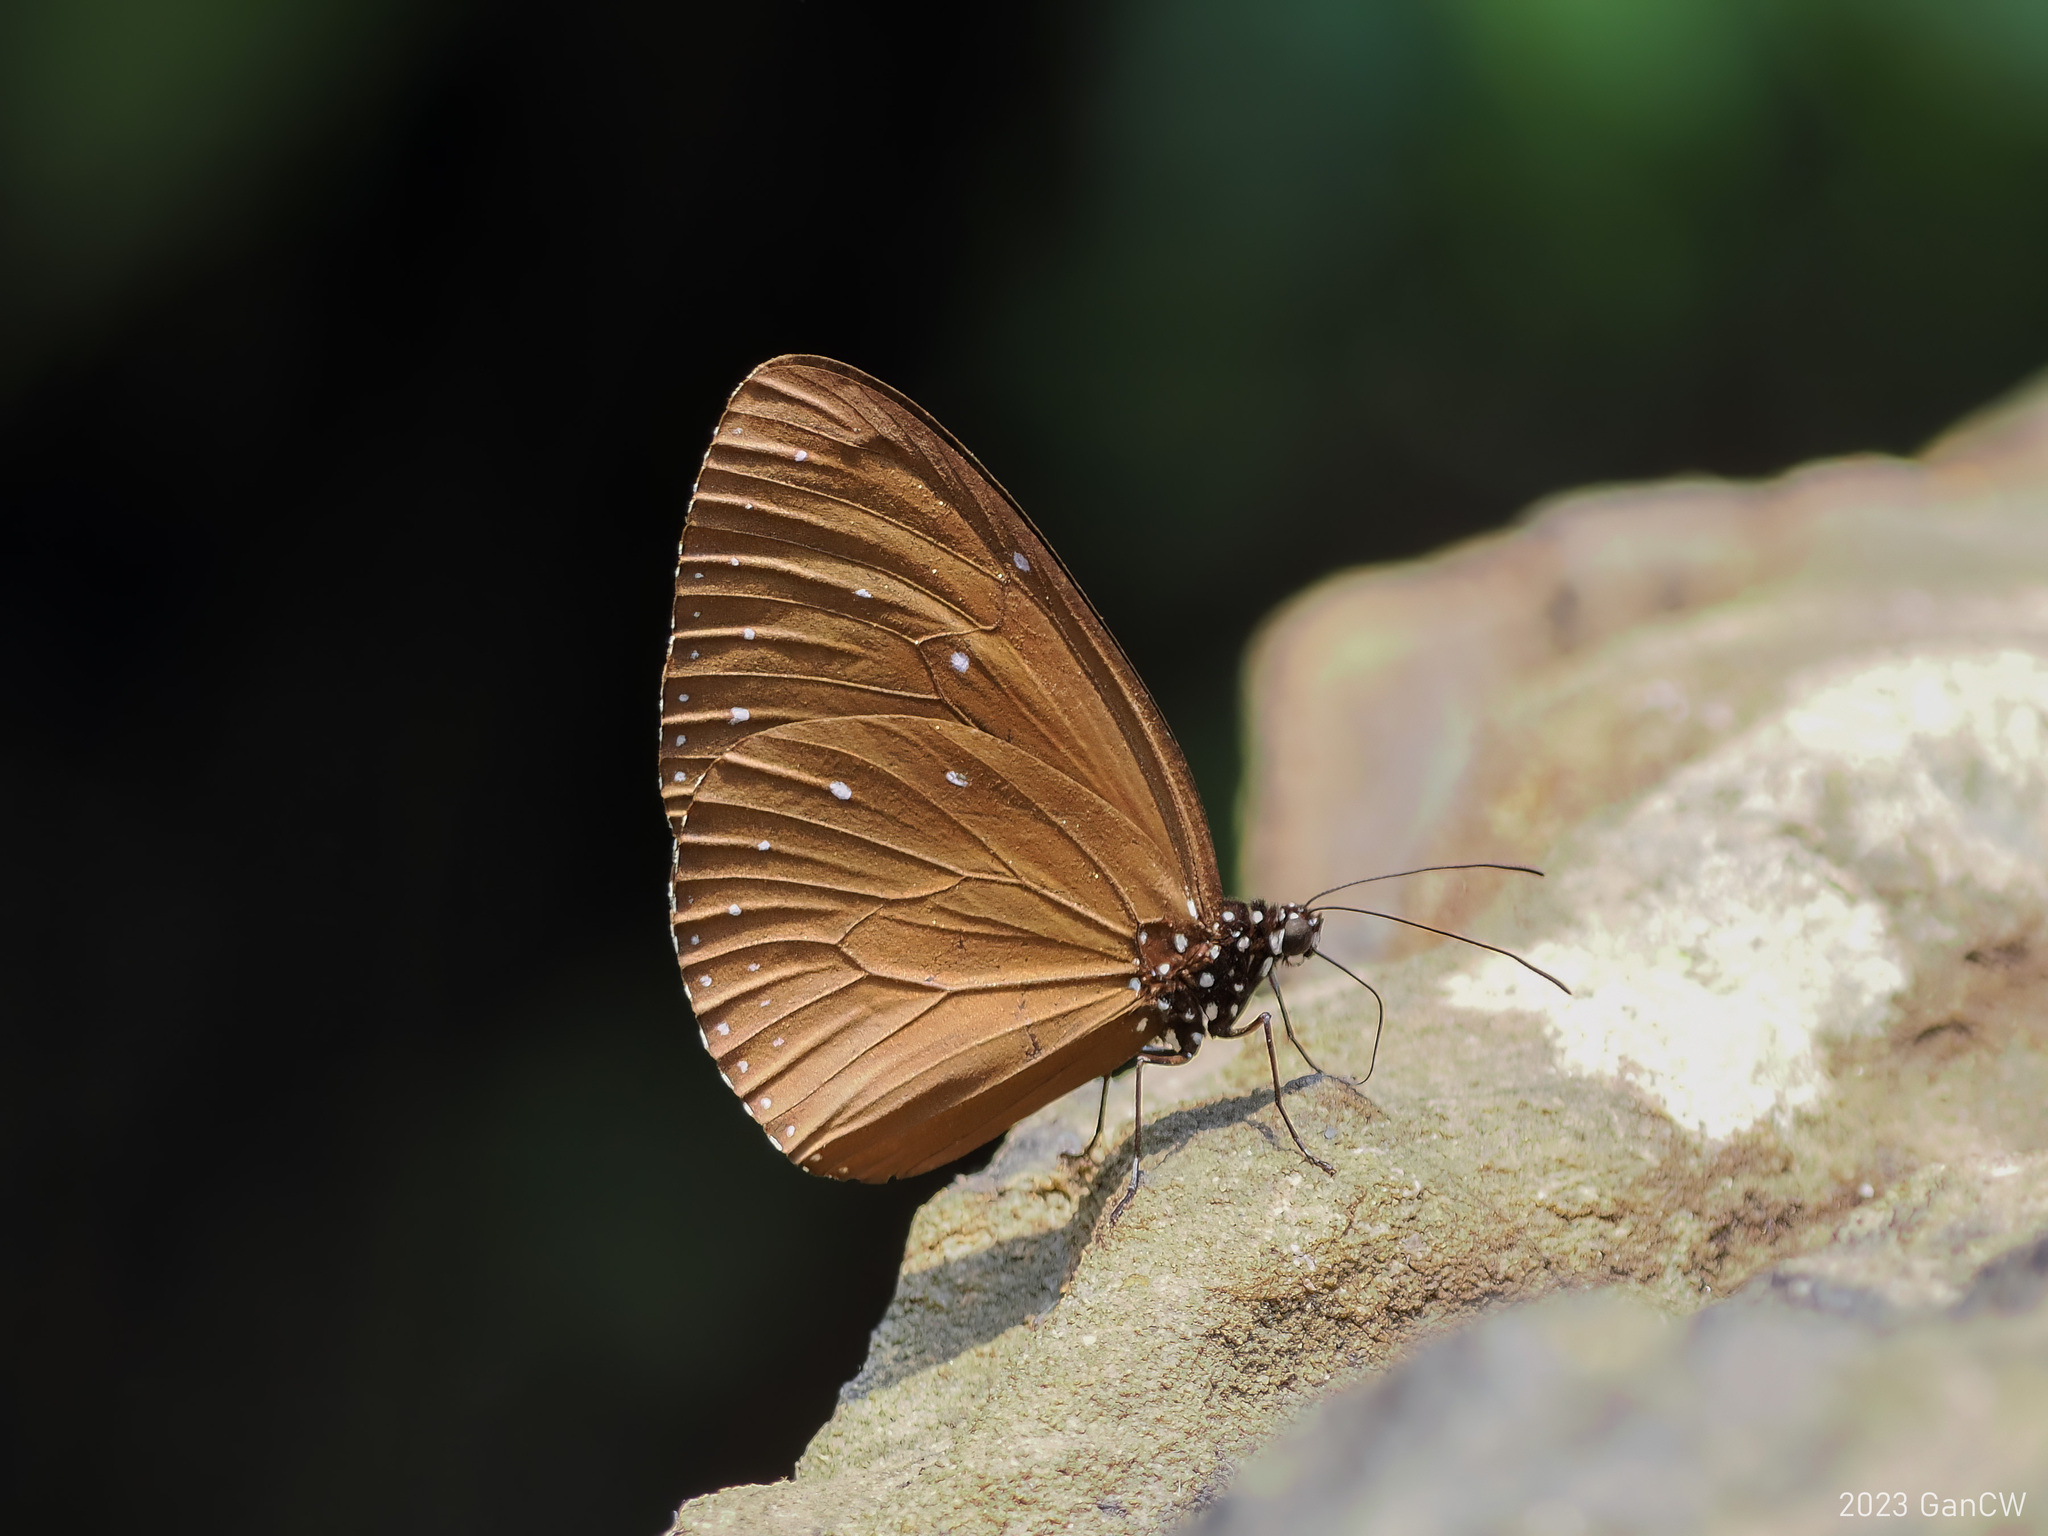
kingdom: Animalia
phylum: Arthropoda
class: Insecta
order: Lepidoptera
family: Nymphalidae
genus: Euploea
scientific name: Euploea tulliolus
